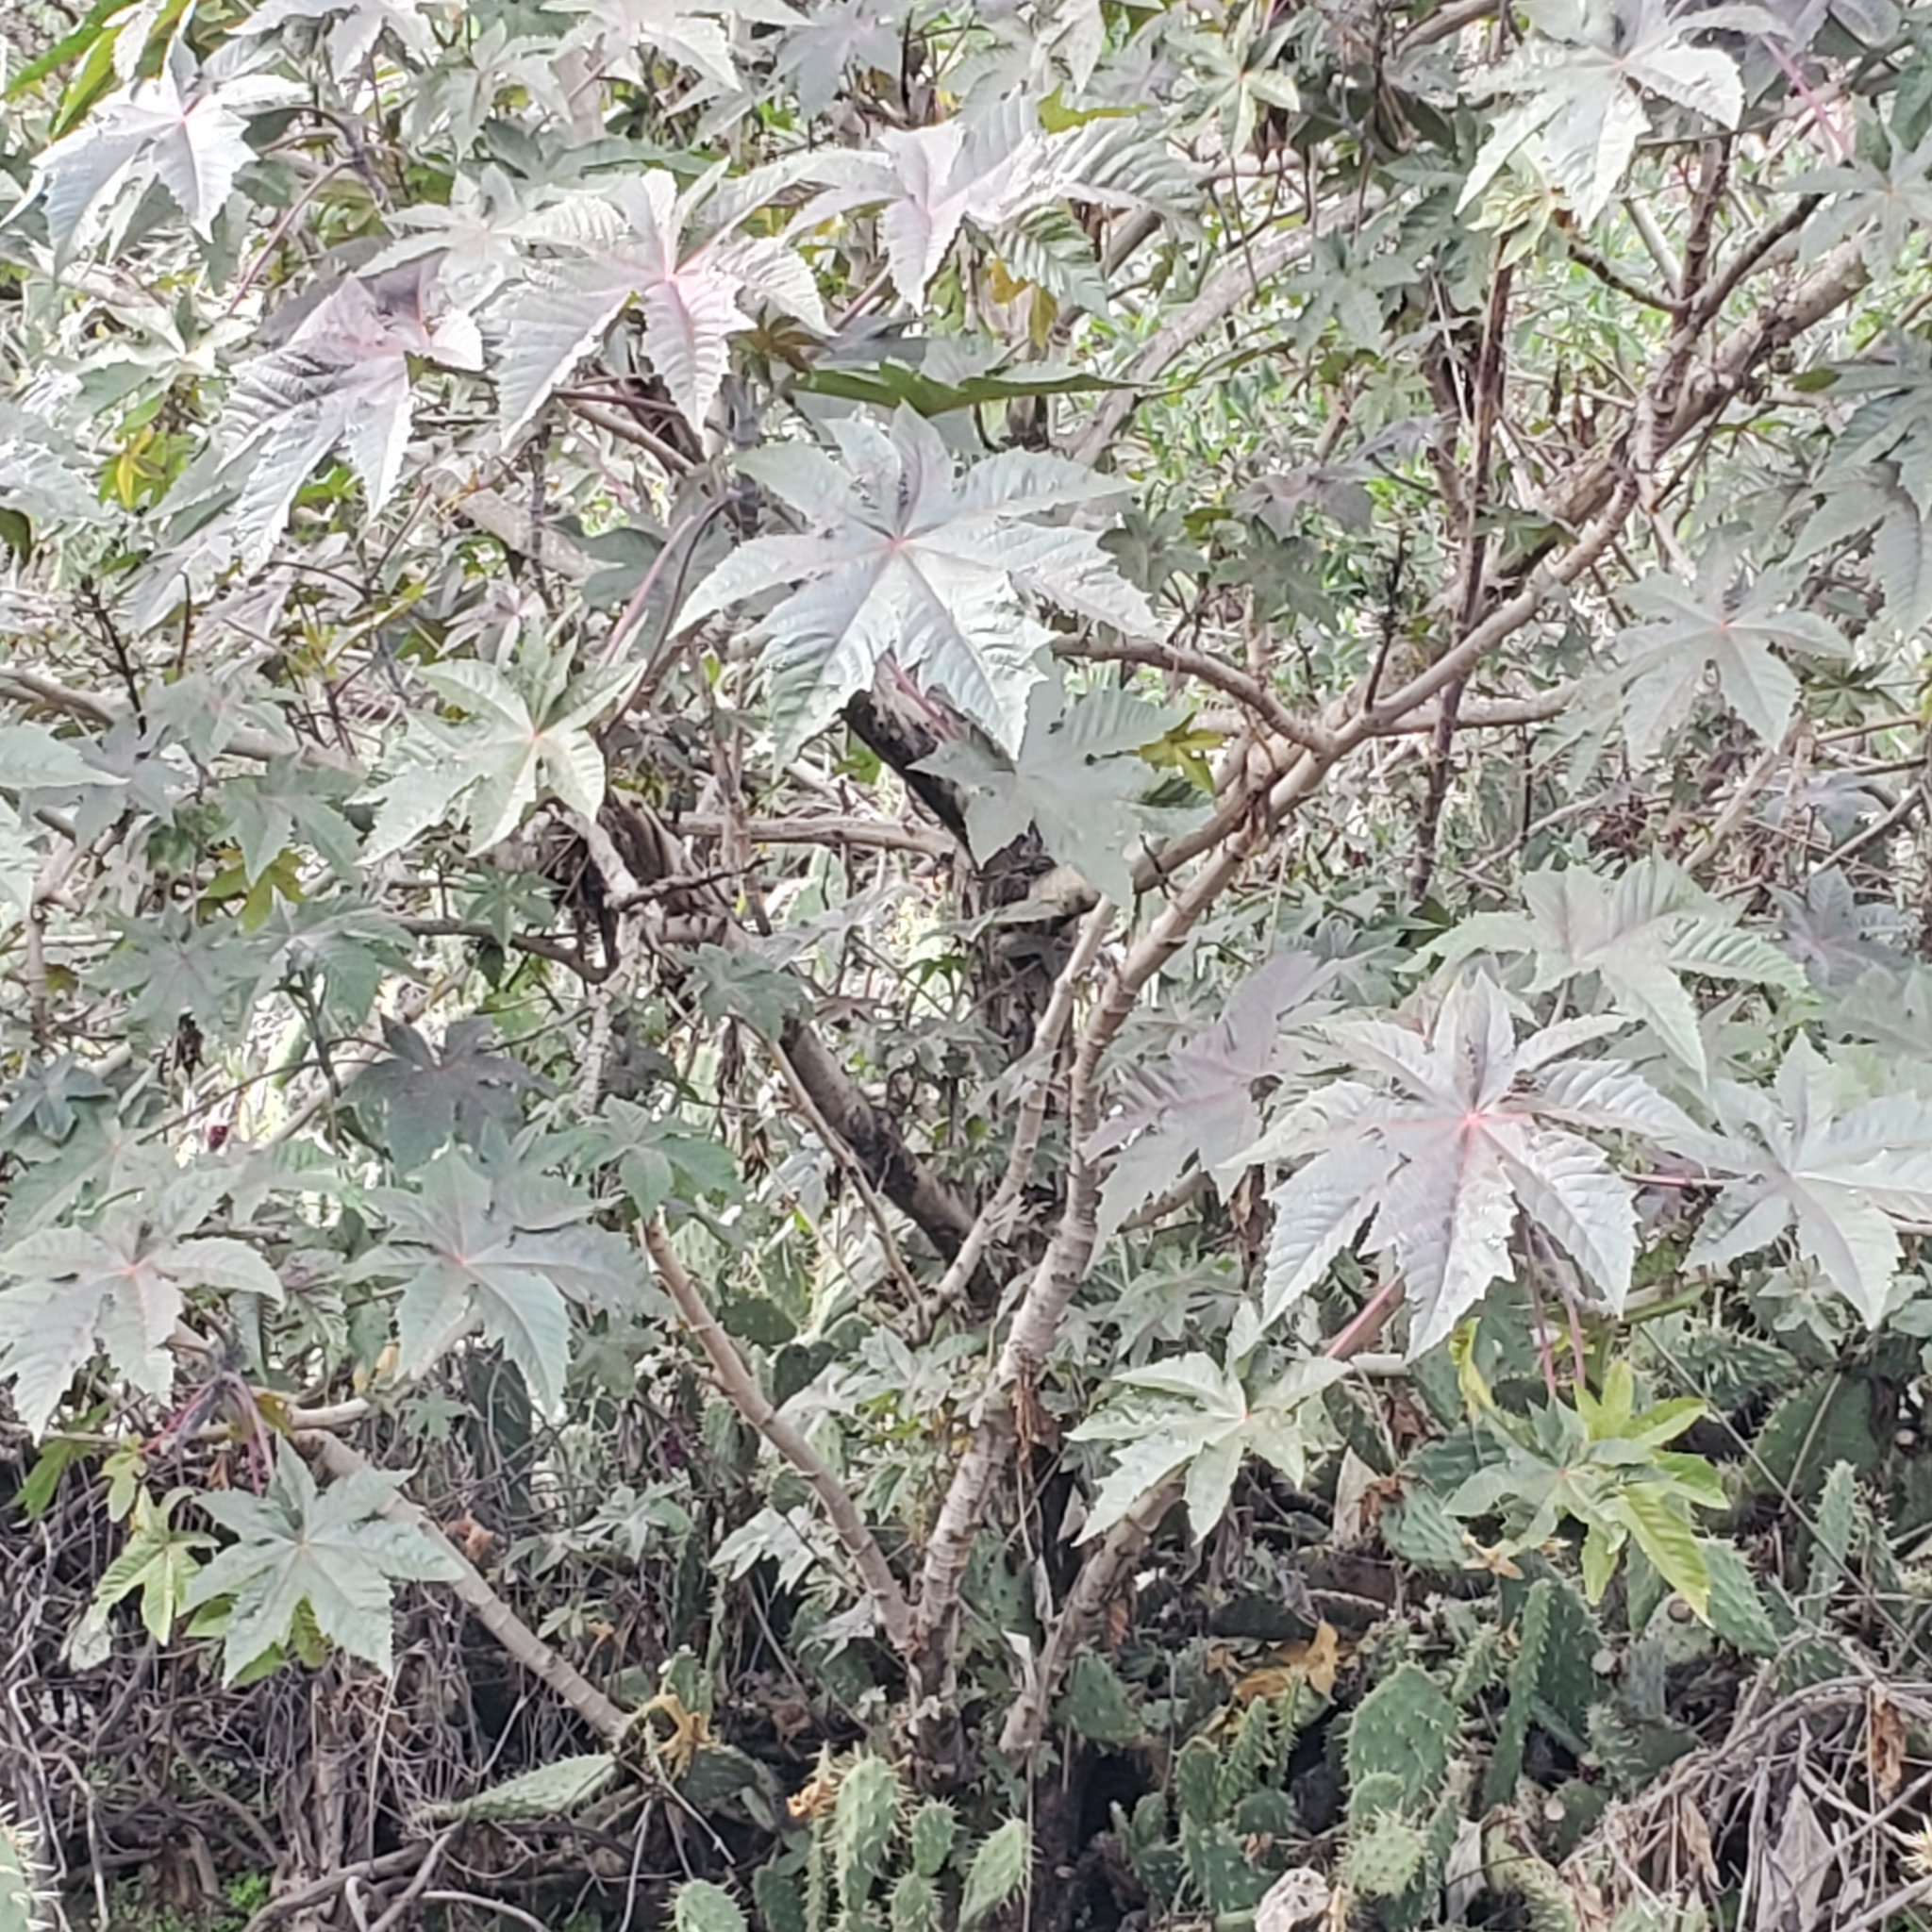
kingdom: Plantae
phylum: Tracheophyta
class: Magnoliopsida
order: Malpighiales
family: Euphorbiaceae
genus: Ricinus
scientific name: Ricinus communis
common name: Castor-oil-plant
